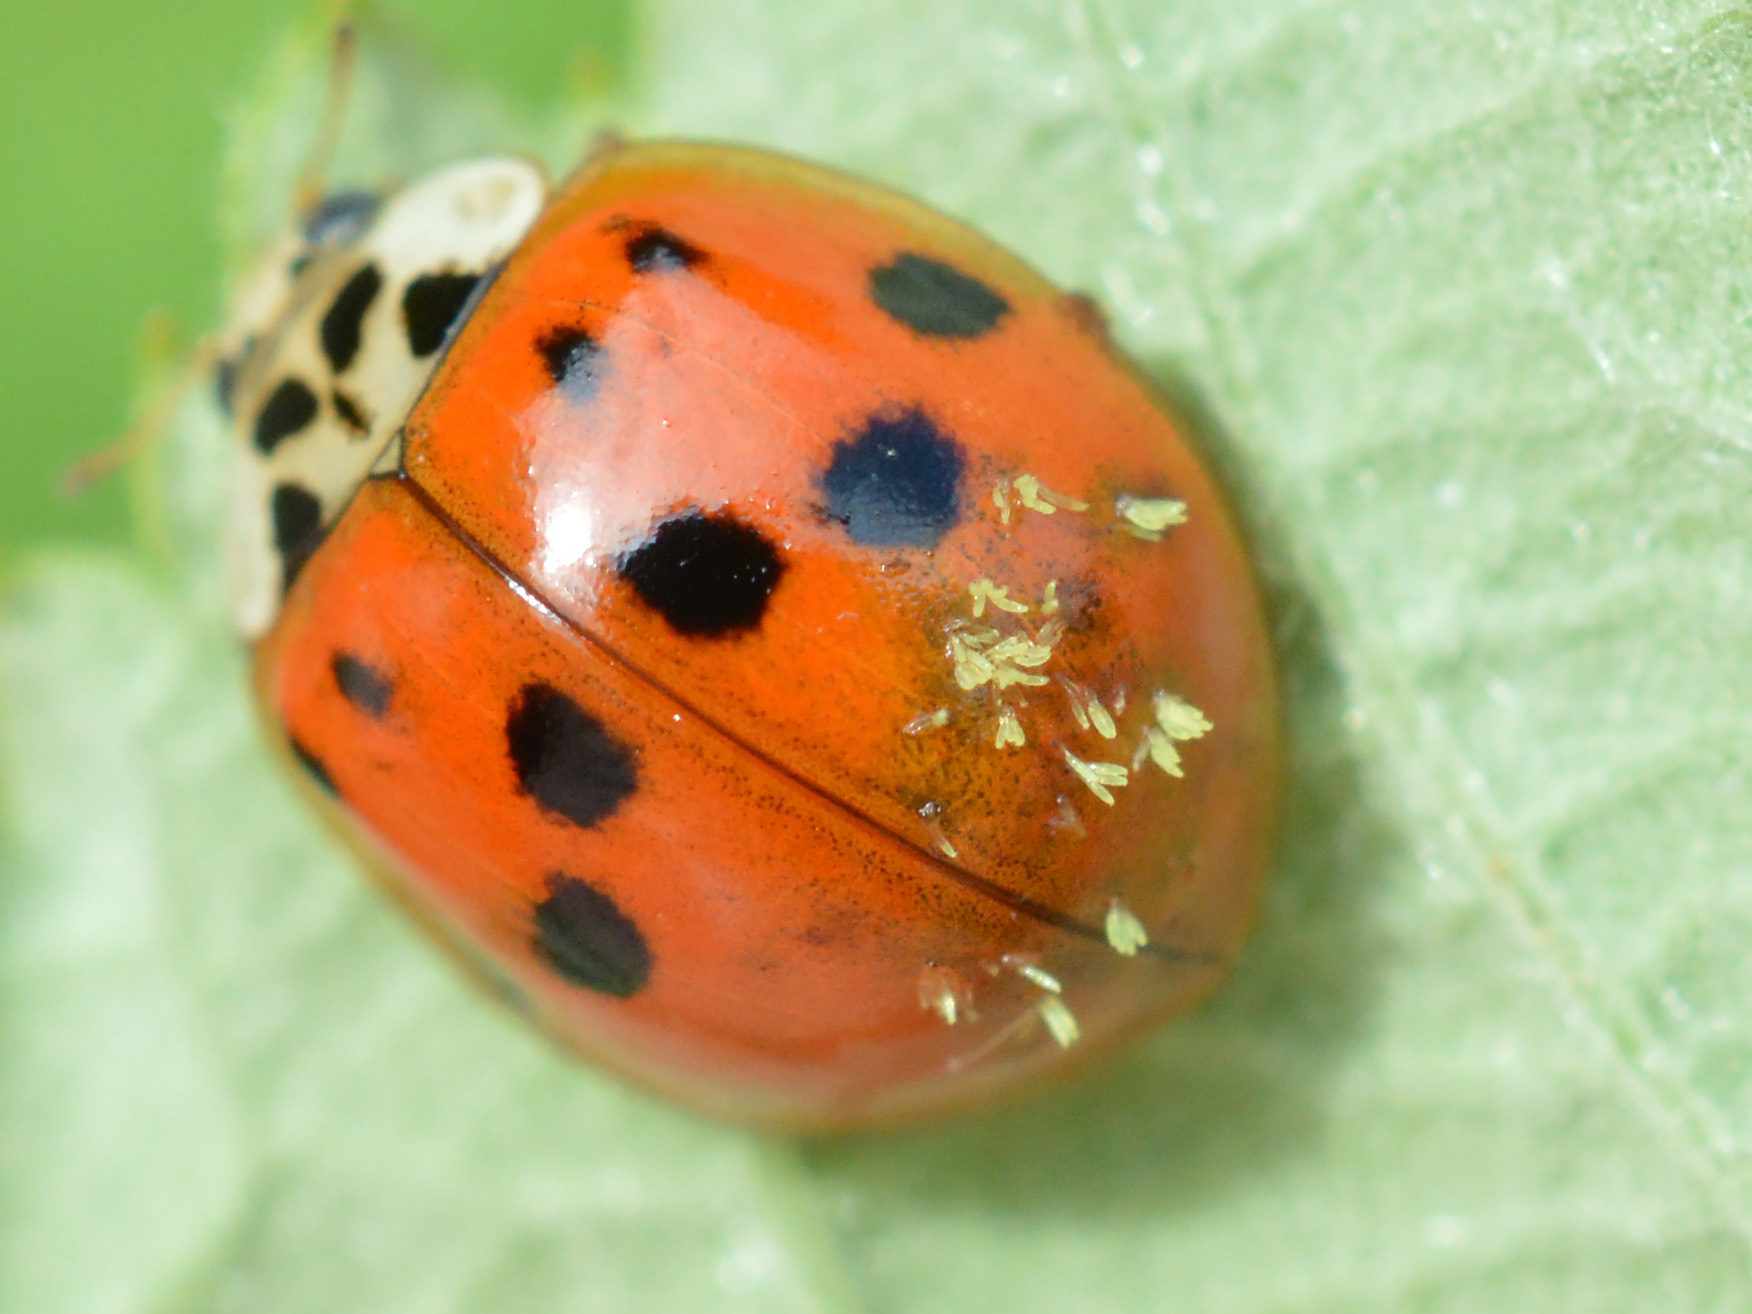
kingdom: Fungi
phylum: Ascomycota
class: Laboulbeniomycetes
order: Laboulbeniales
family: Laboulbeniaceae
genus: Hesperomyces
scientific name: Hesperomyces harmoniae
